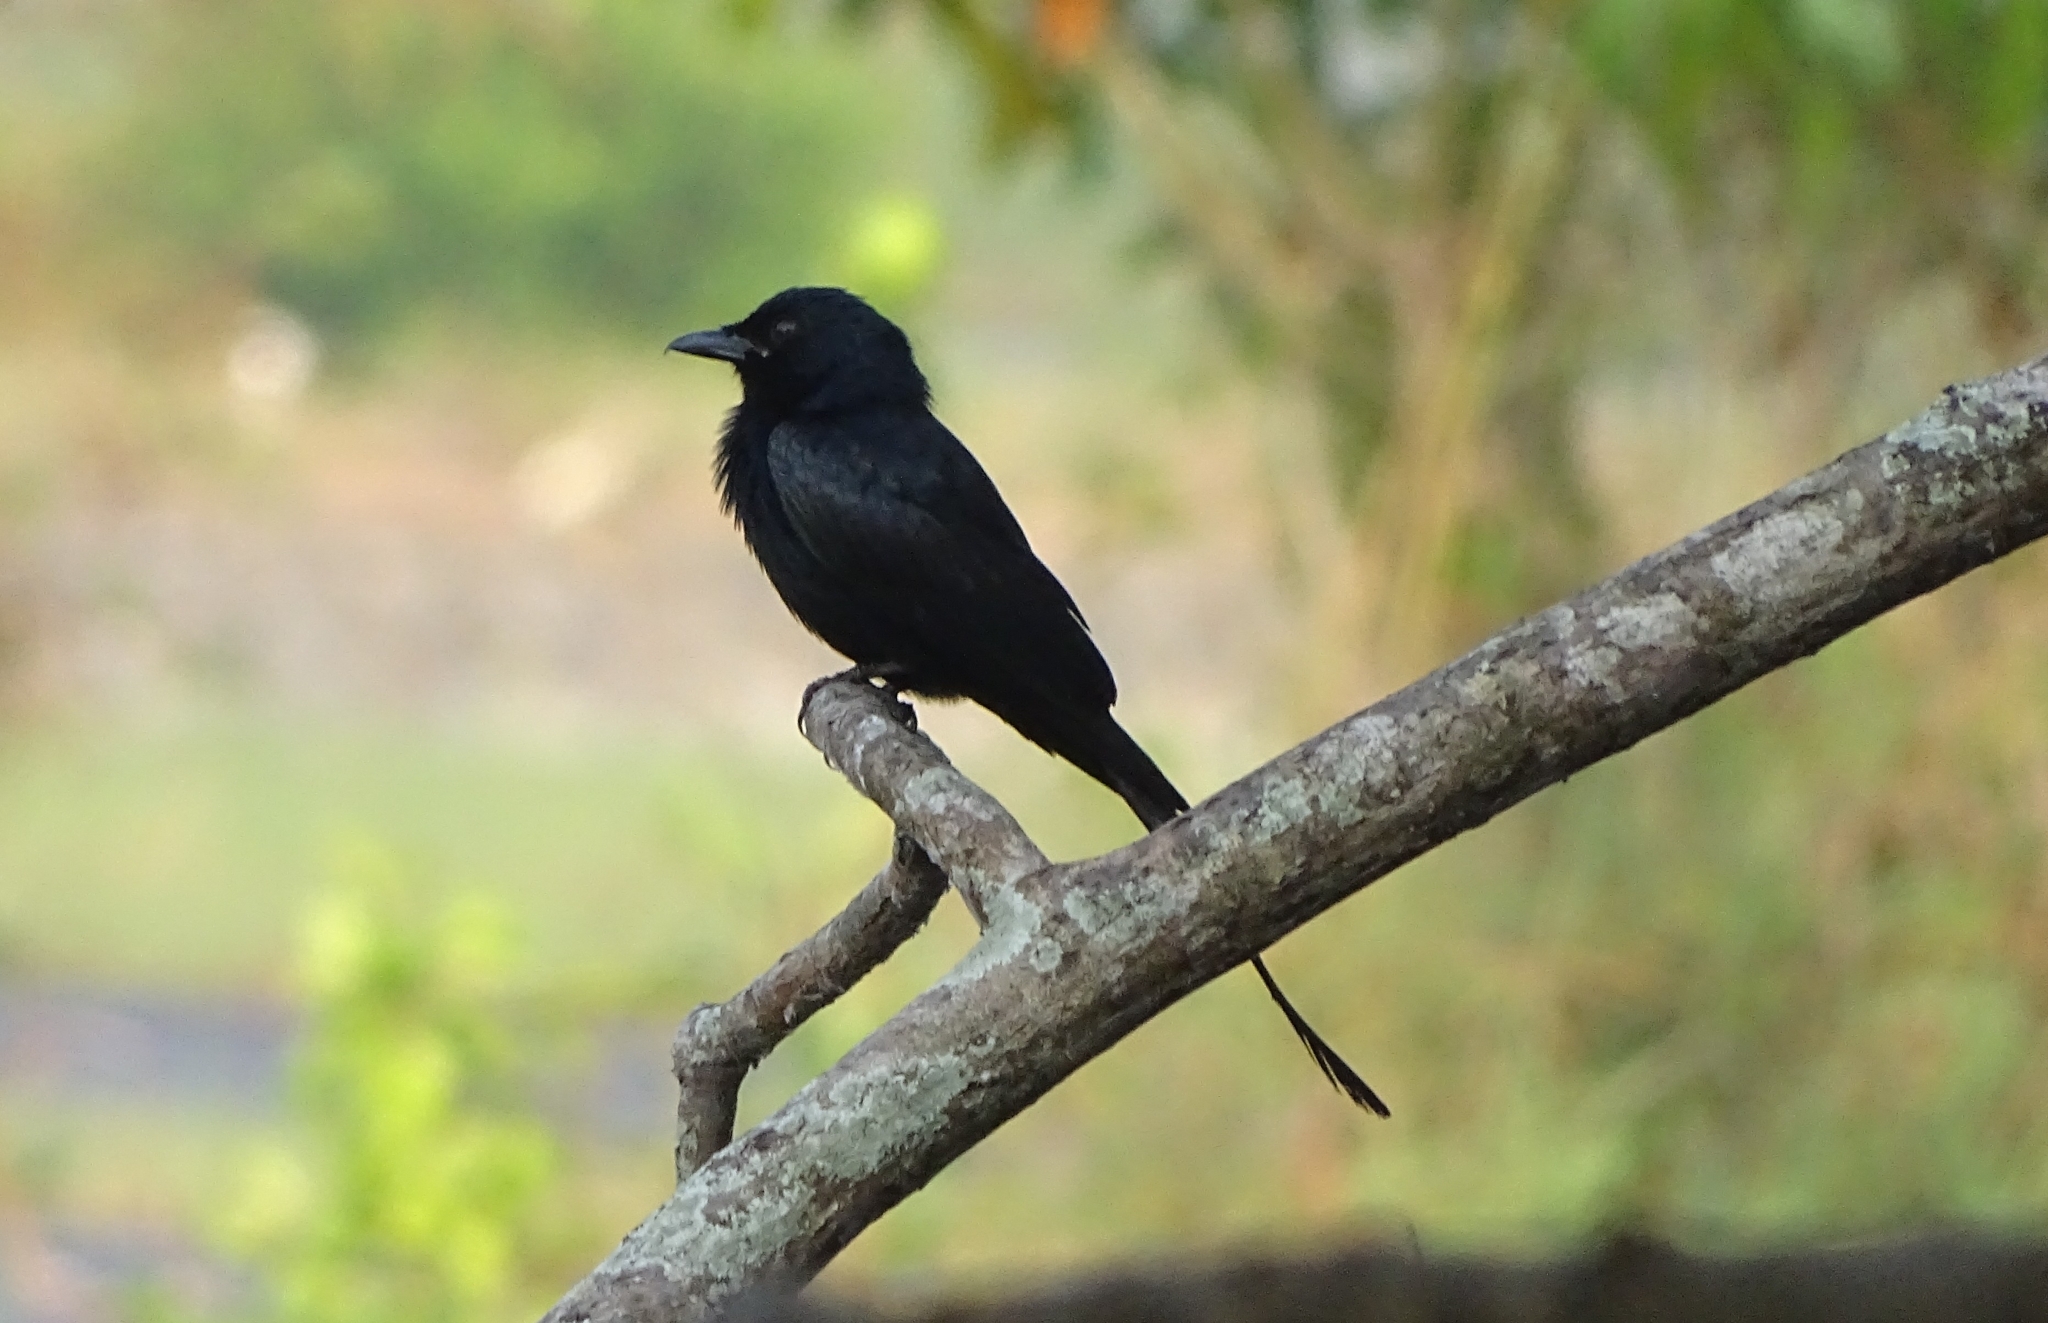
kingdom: Animalia
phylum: Chordata
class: Aves
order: Passeriformes
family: Dicruridae
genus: Dicrurus
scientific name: Dicrurus macrocercus
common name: Black drongo
